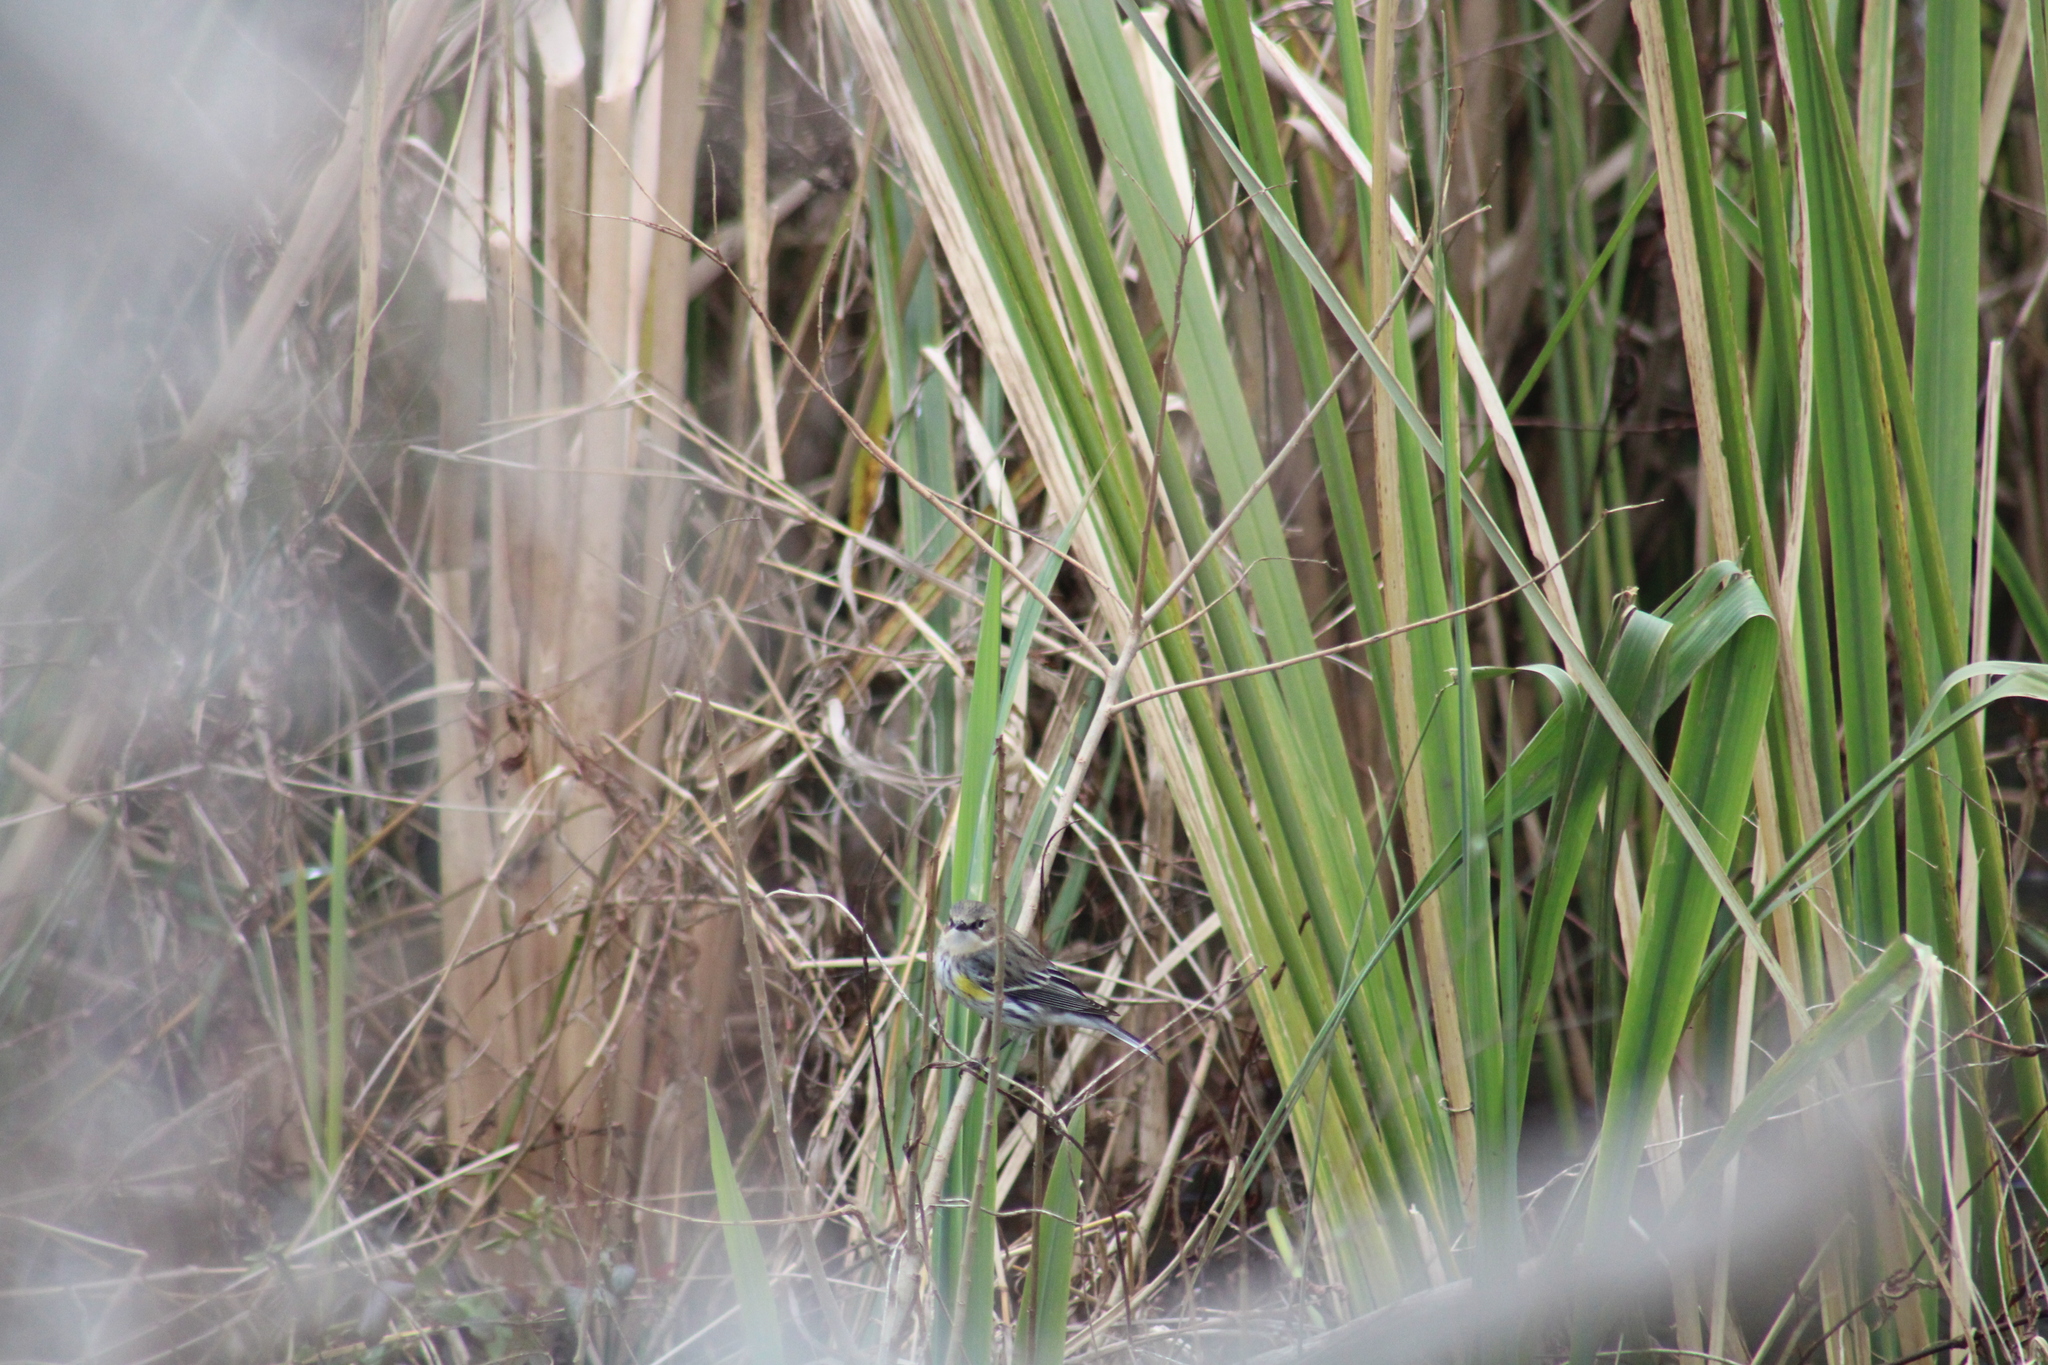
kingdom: Animalia
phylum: Chordata
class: Aves
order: Passeriformes
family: Parulidae
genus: Setophaga
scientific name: Setophaga coronata
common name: Myrtle warbler
